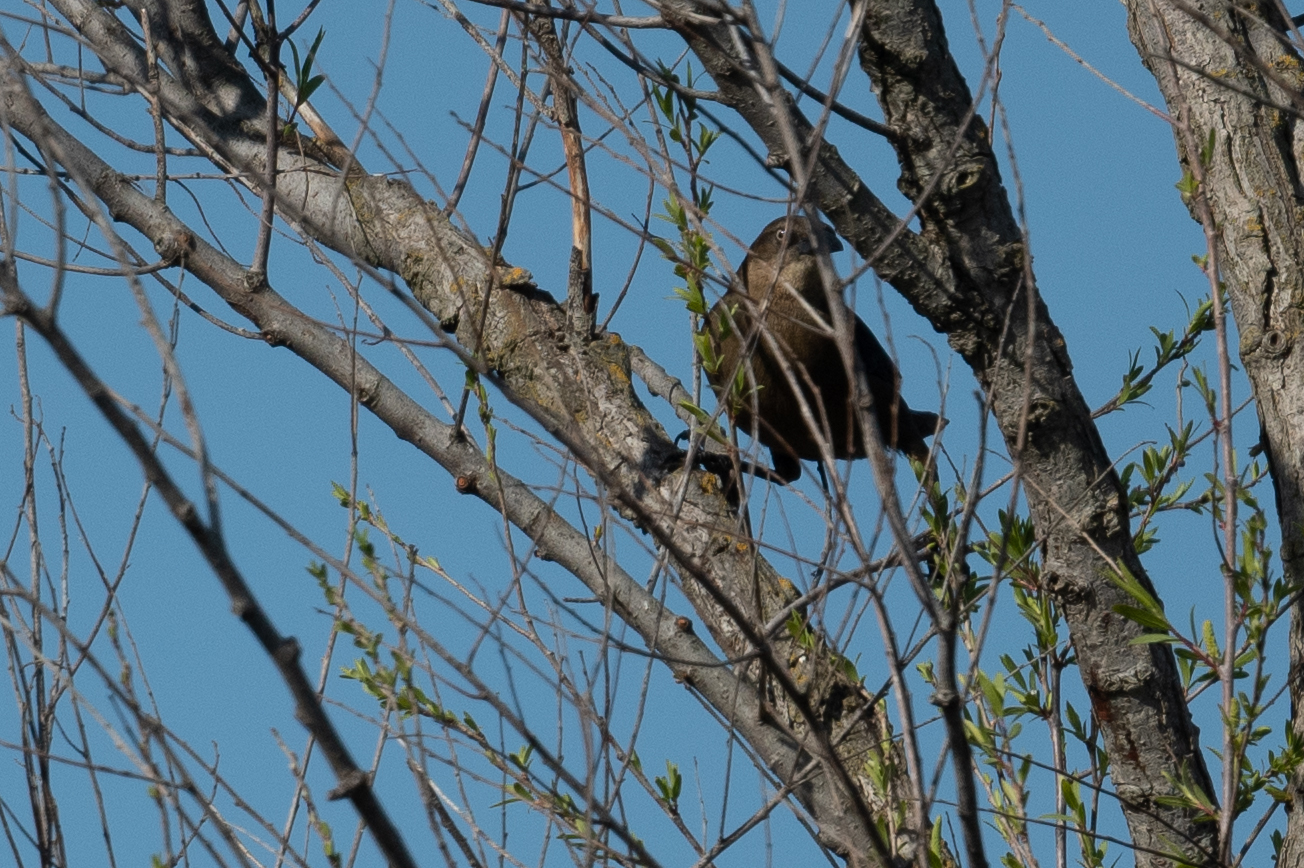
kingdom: Animalia
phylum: Chordata
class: Aves
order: Passeriformes
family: Icteridae
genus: Quiscalus
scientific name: Quiscalus mexicanus
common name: Great-tailed grackle
